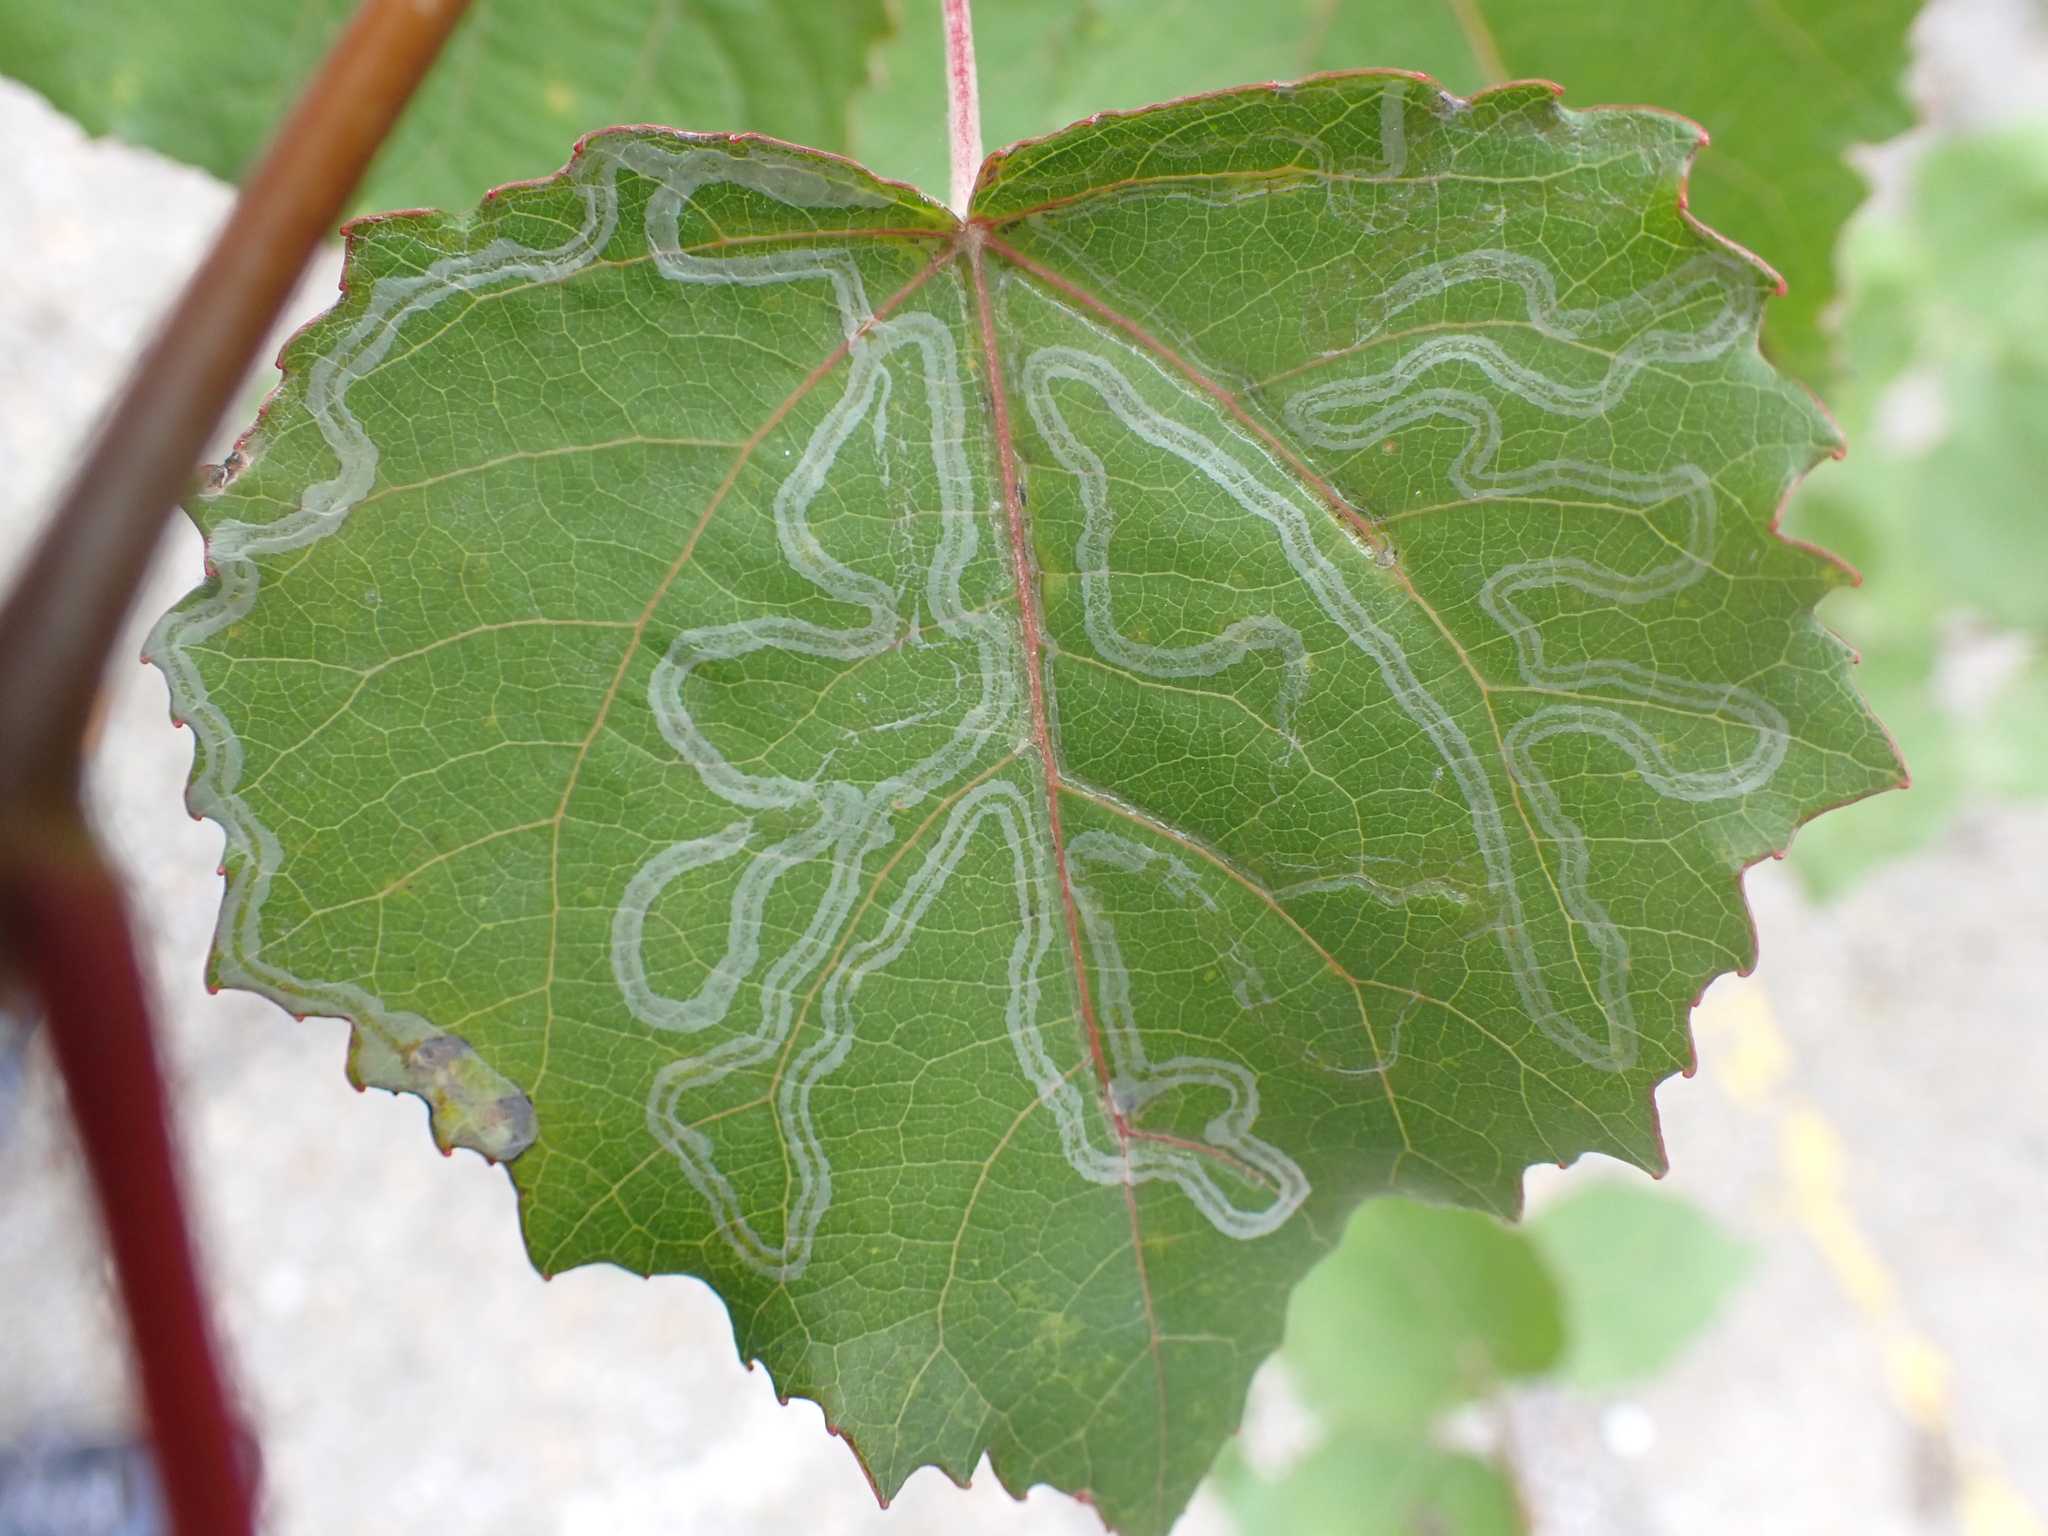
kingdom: Animalia
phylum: Arthropoda
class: Insecta
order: Lepidoptera
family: Gracillariidae
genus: Phyllocnistis
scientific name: Phyllocnistis xenia
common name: Kent bent-wing
